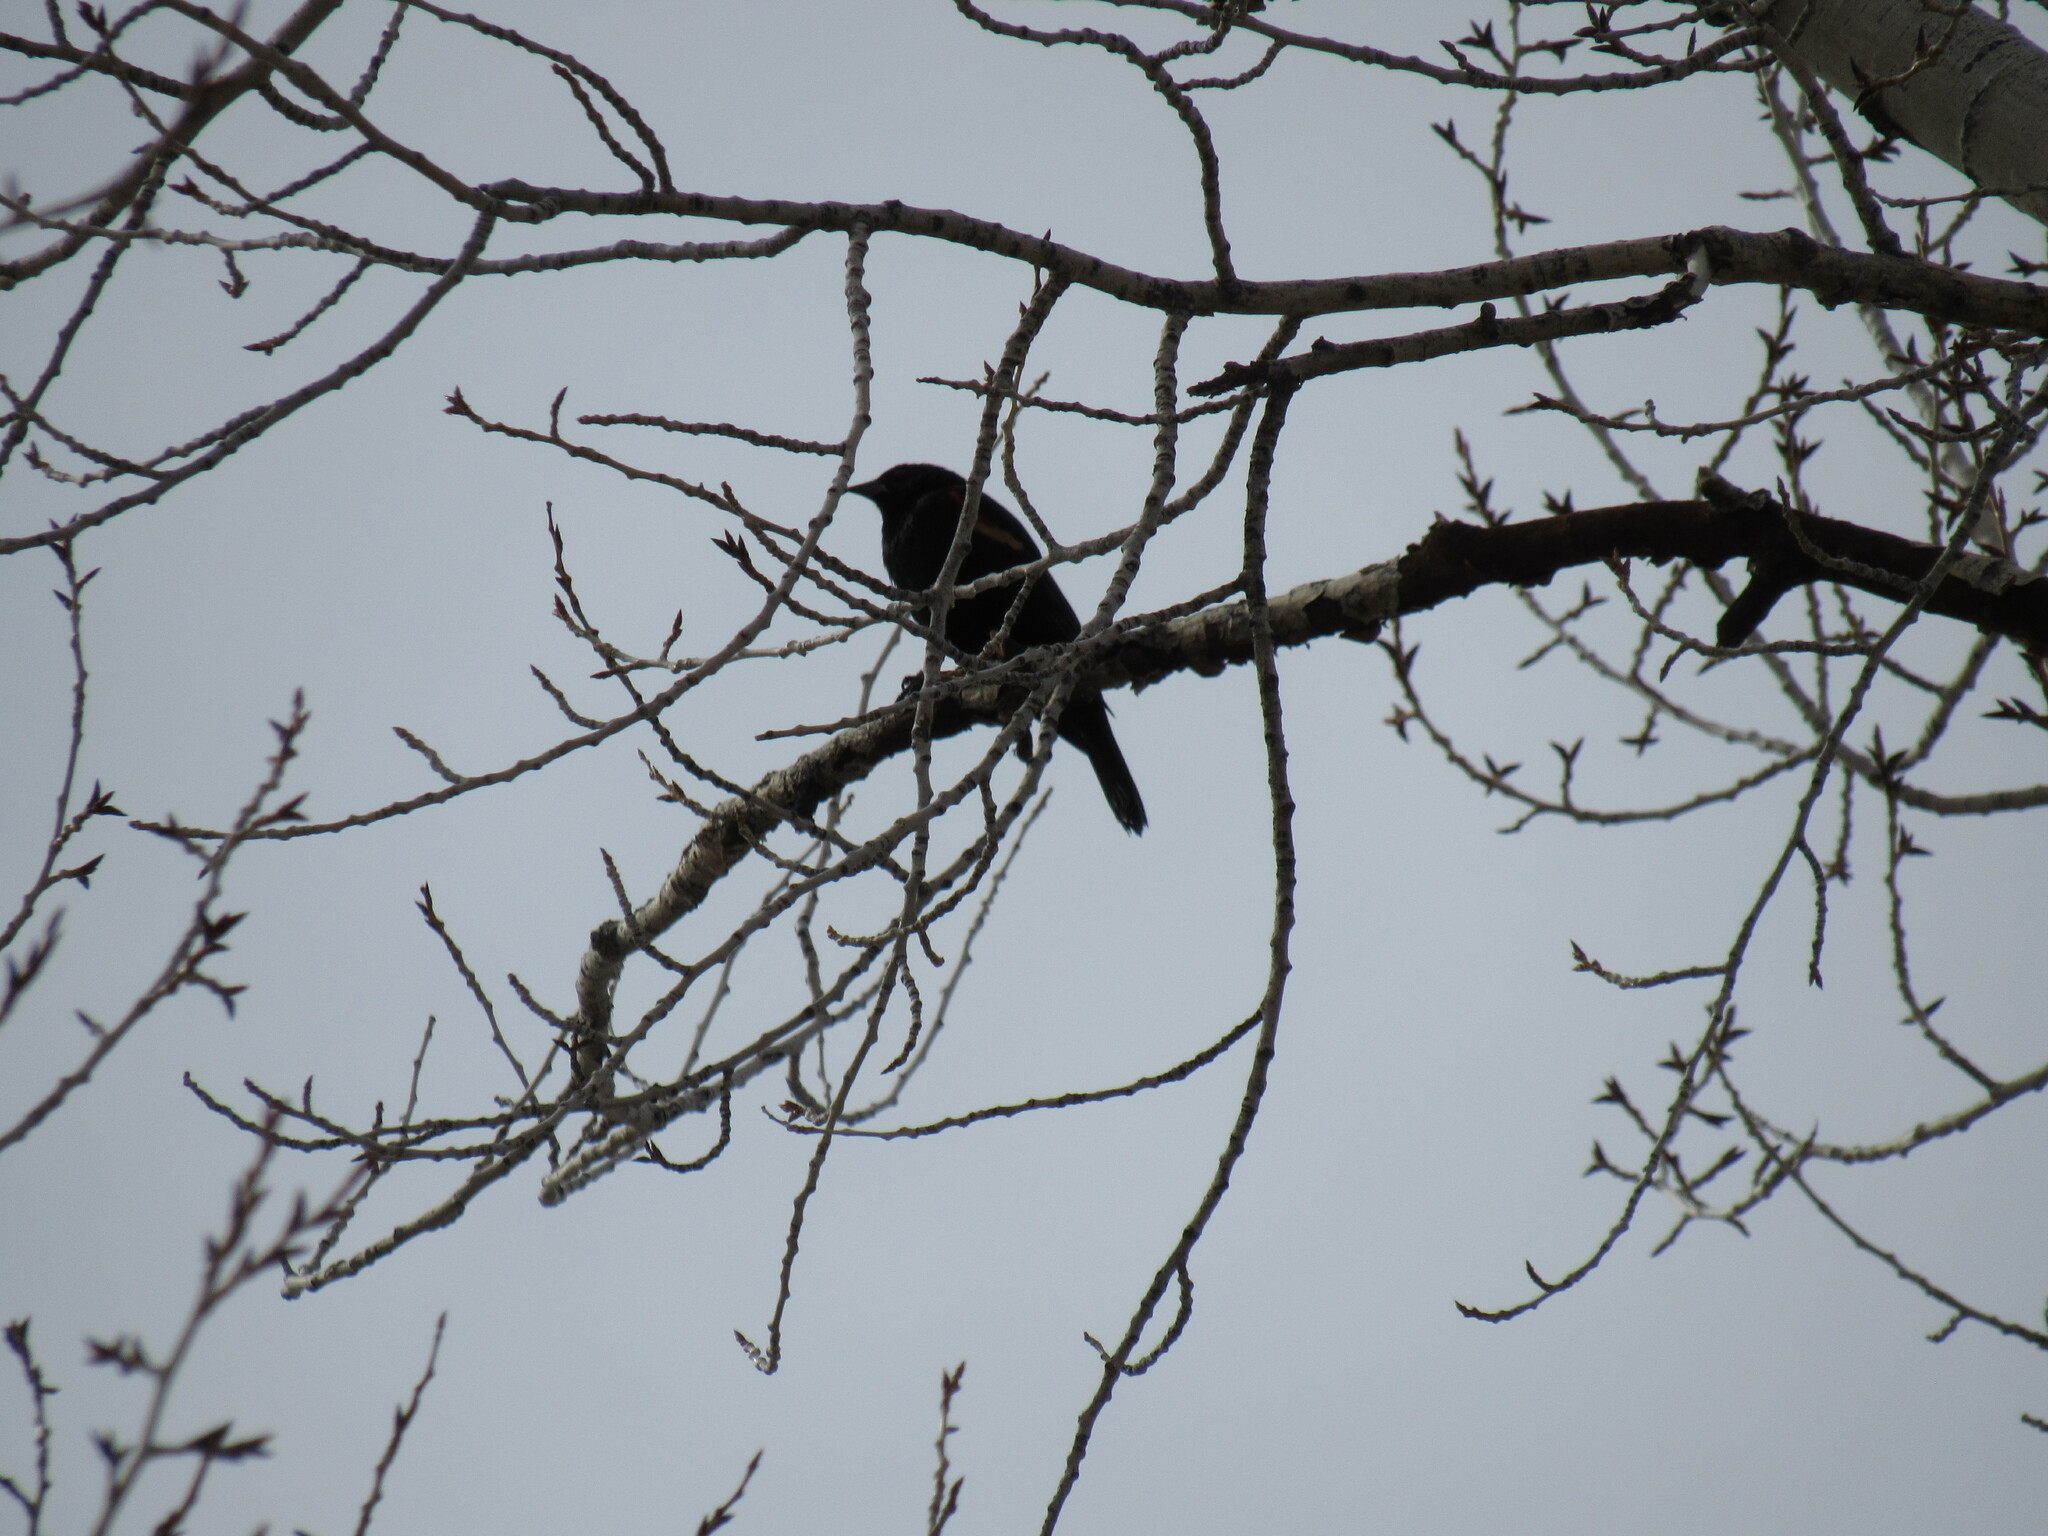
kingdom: Animalia
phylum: Chordata
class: Aves
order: Passeriformes
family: Icteridae
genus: Agelaius
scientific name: Agelaius phoeniceus
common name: Red-winged blackbird
